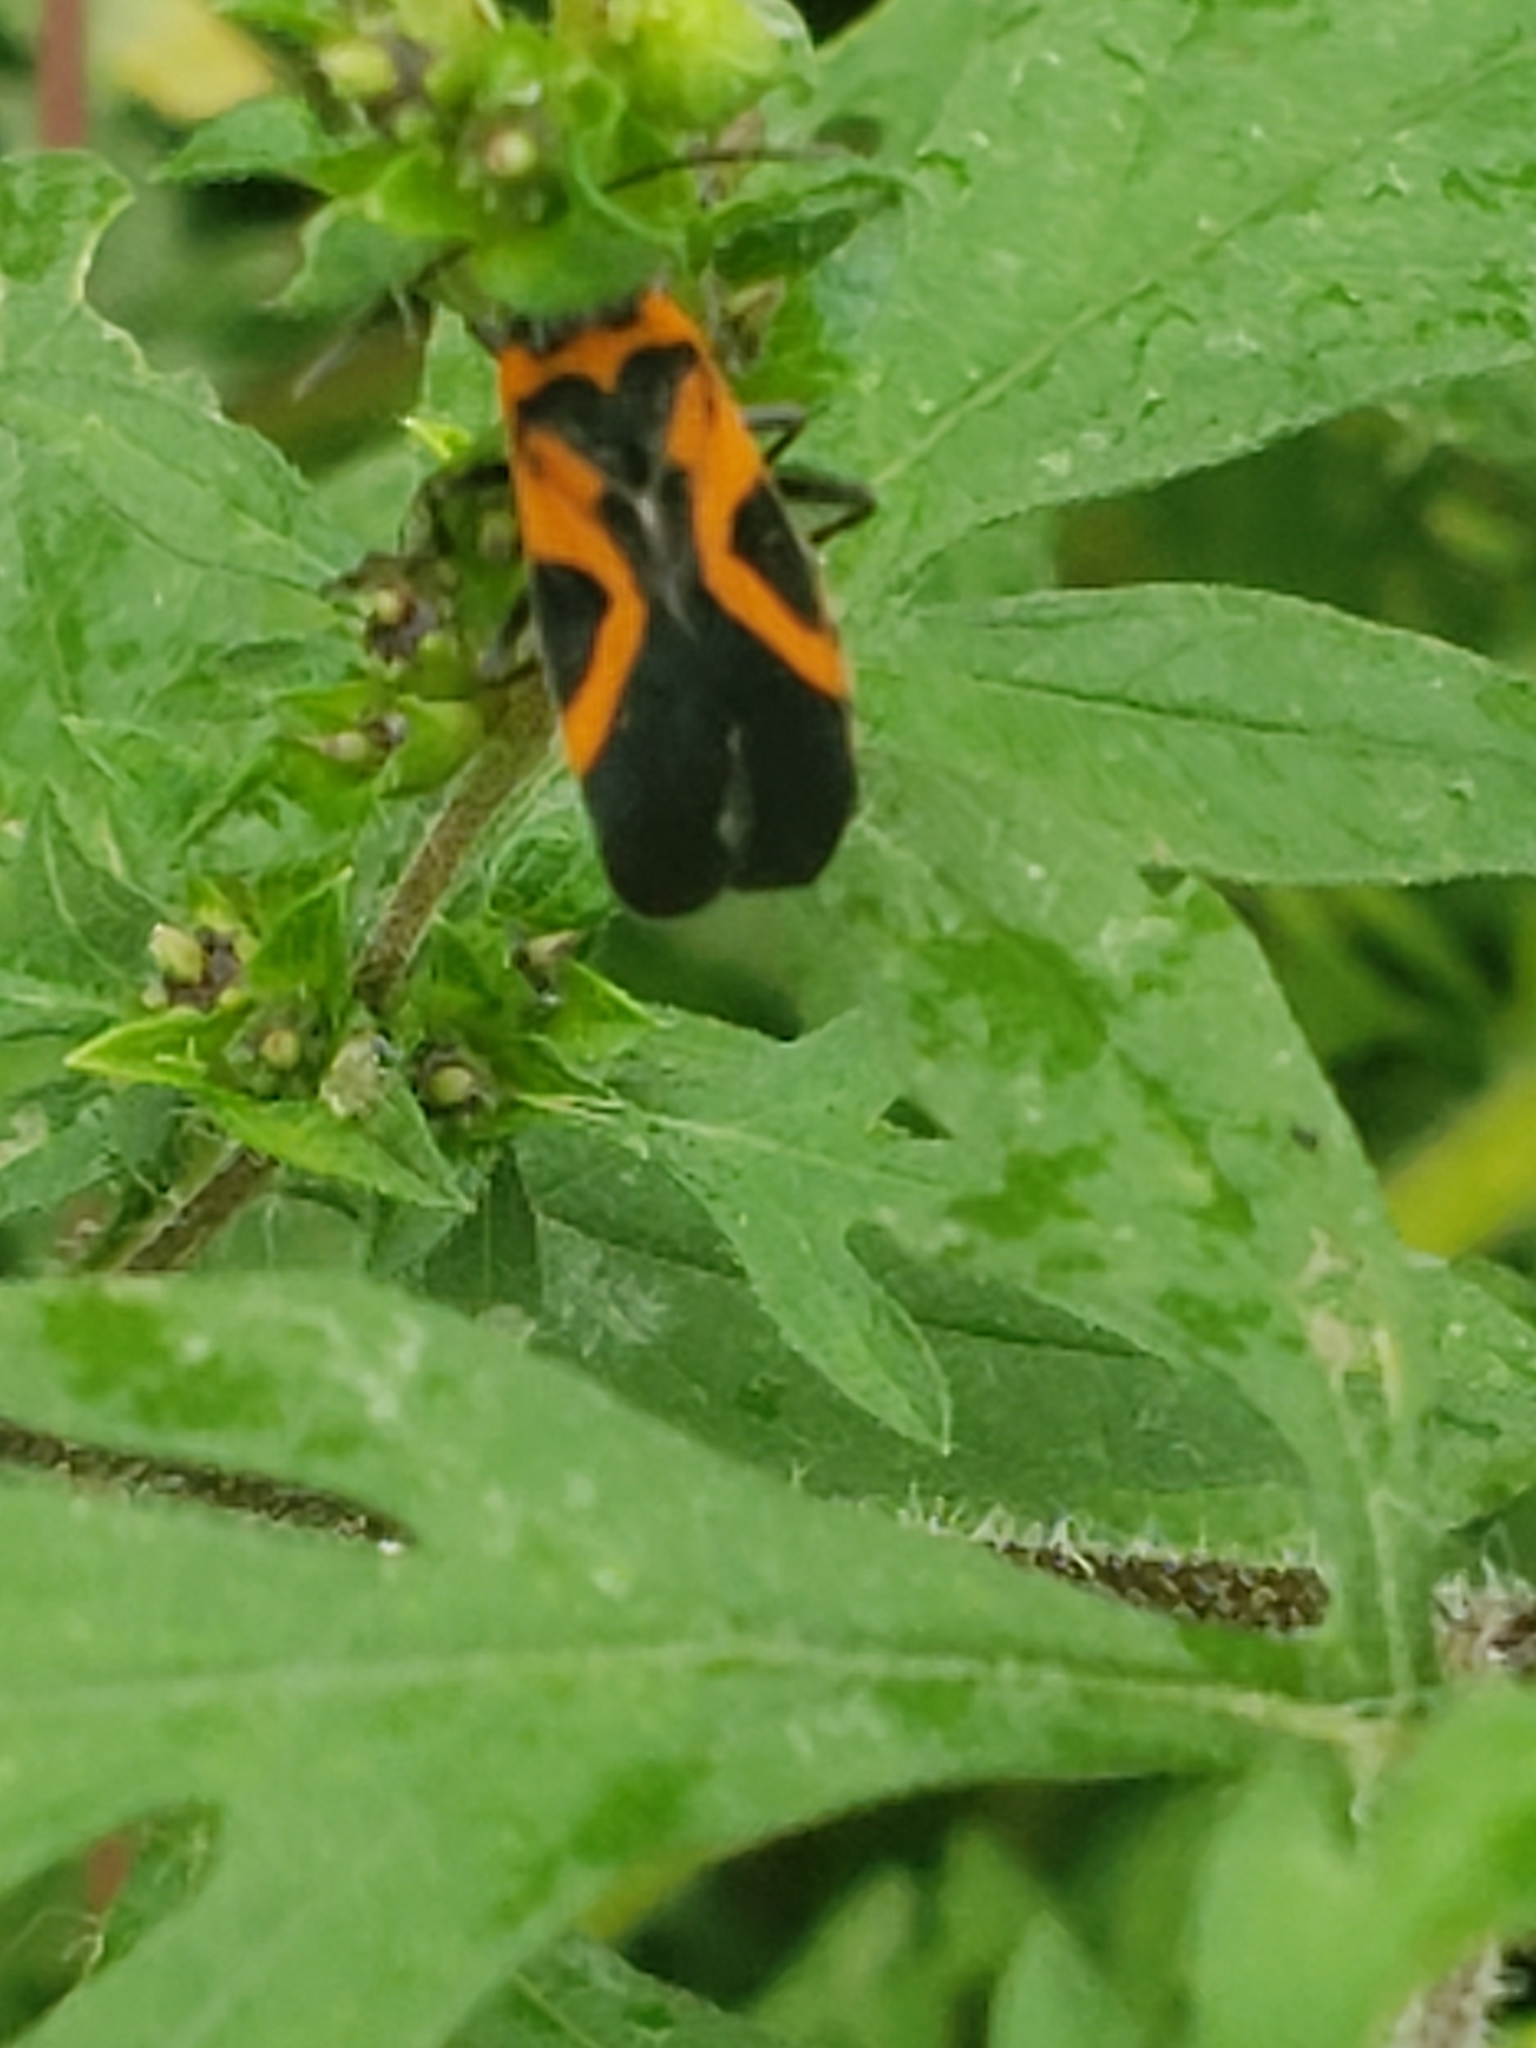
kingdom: Animalia
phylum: Arthropoda
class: Insecta
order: Hemiptera
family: Lygaeidae
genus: Lygaeus
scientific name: Lygaeus turcicus
